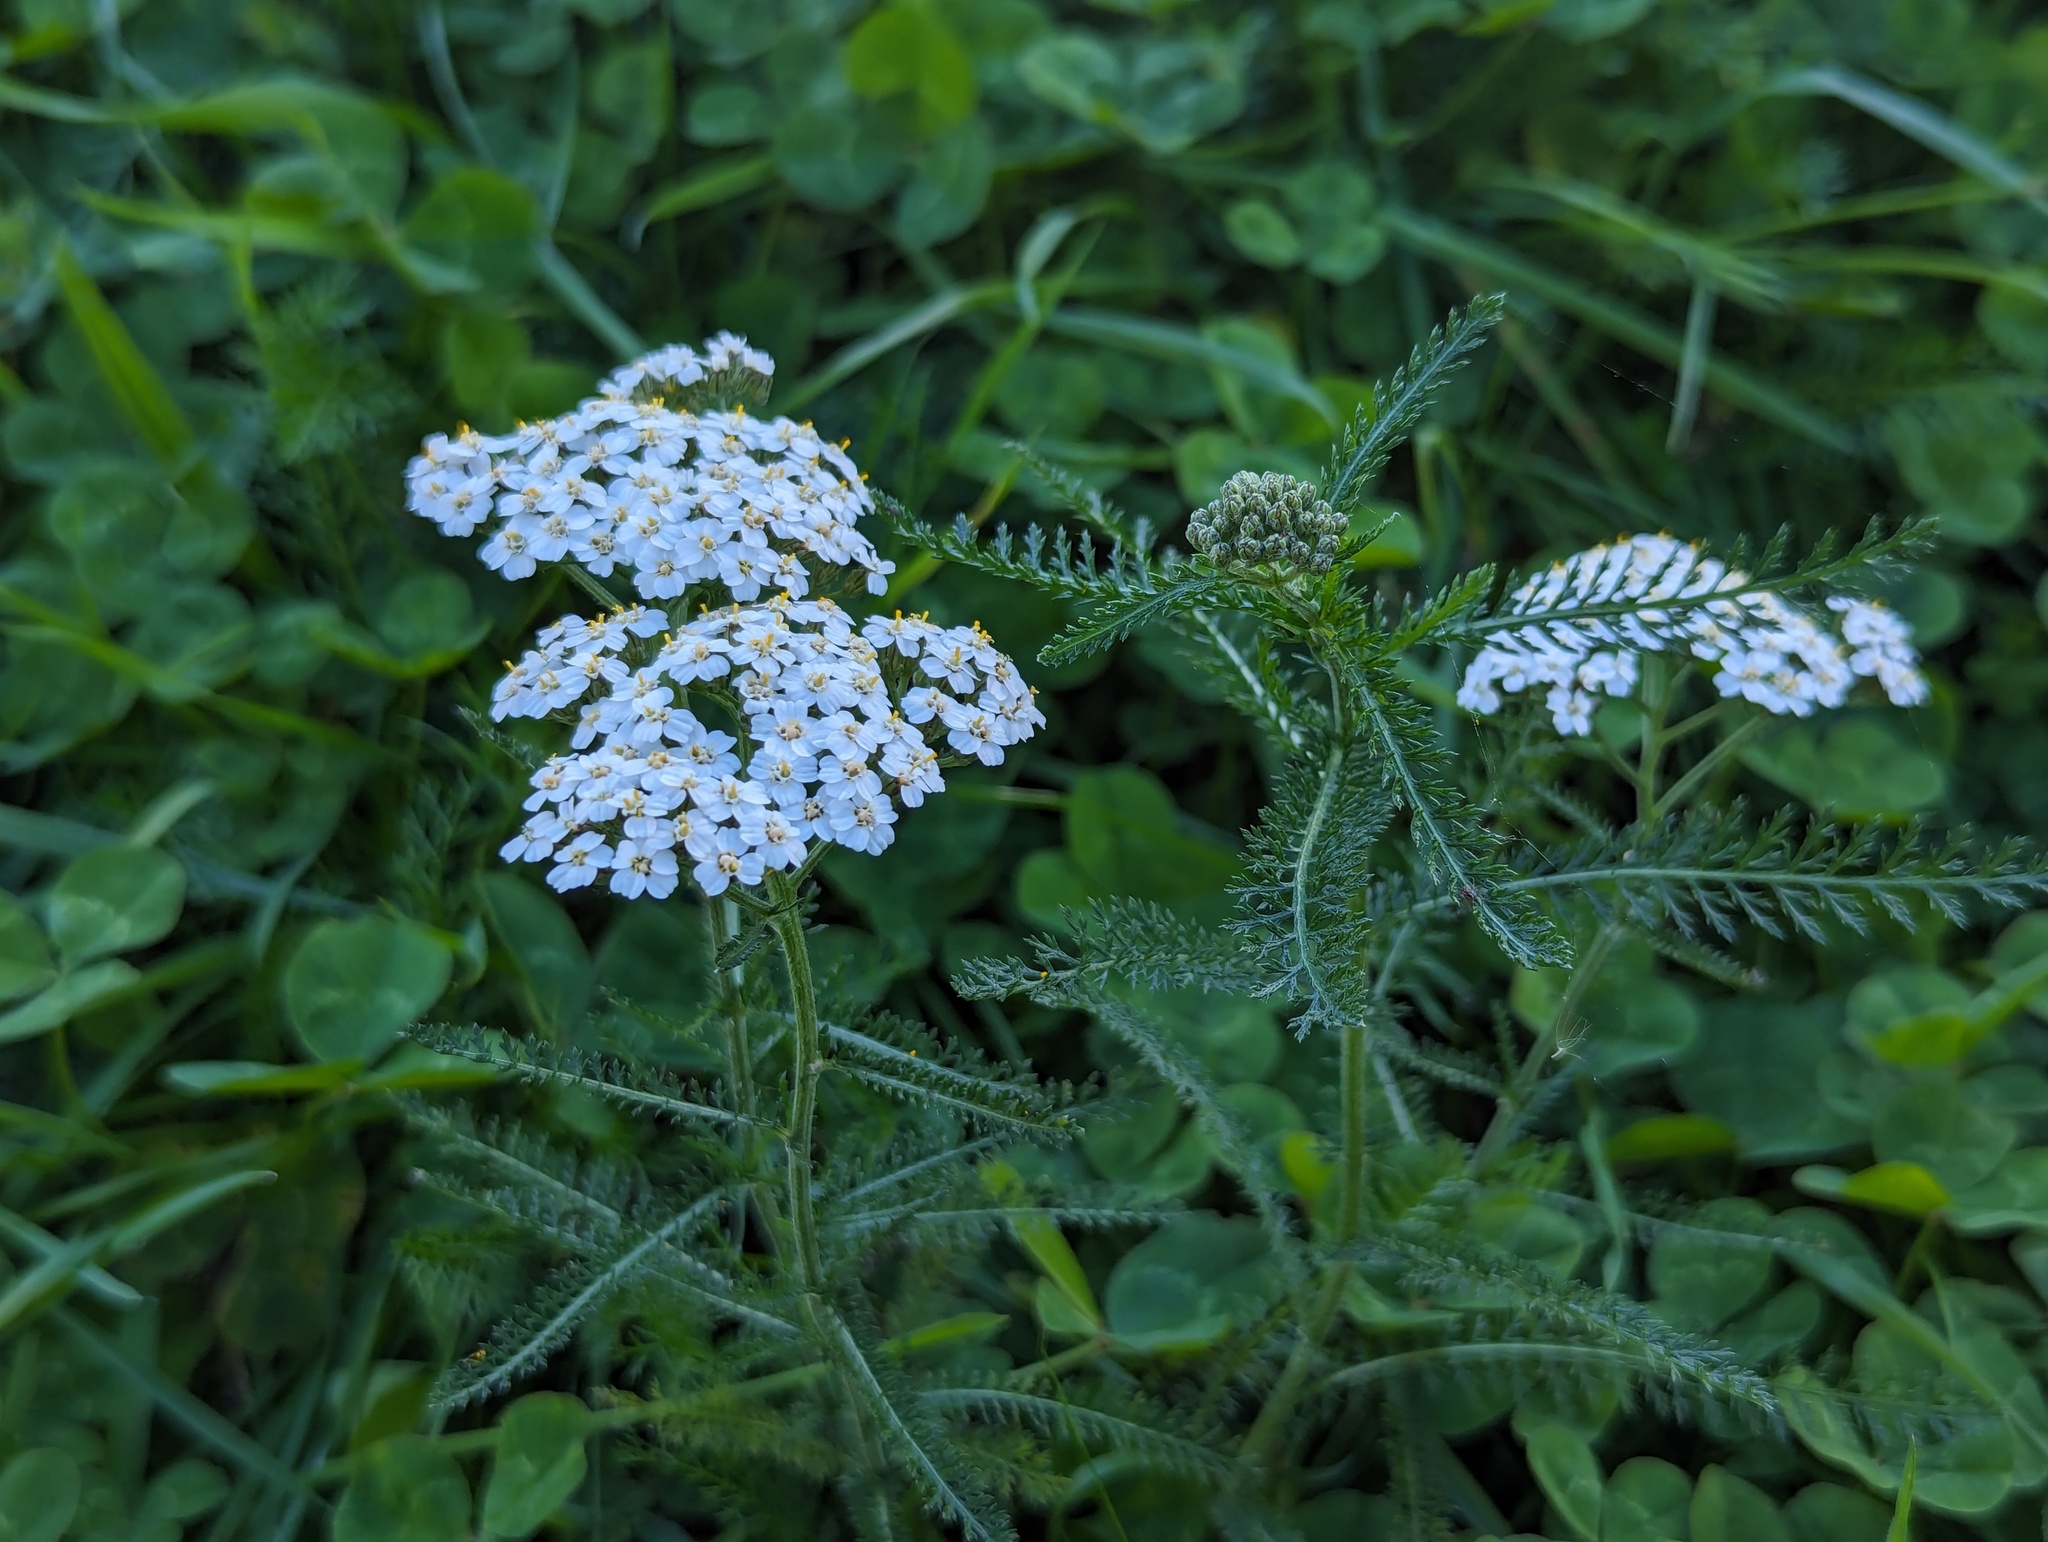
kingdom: Plantae
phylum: Tracheophyta
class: Magnoliopsida
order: Asterales
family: Asteraceae
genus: Achillea
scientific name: Achillea millefolium
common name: Yarrow
